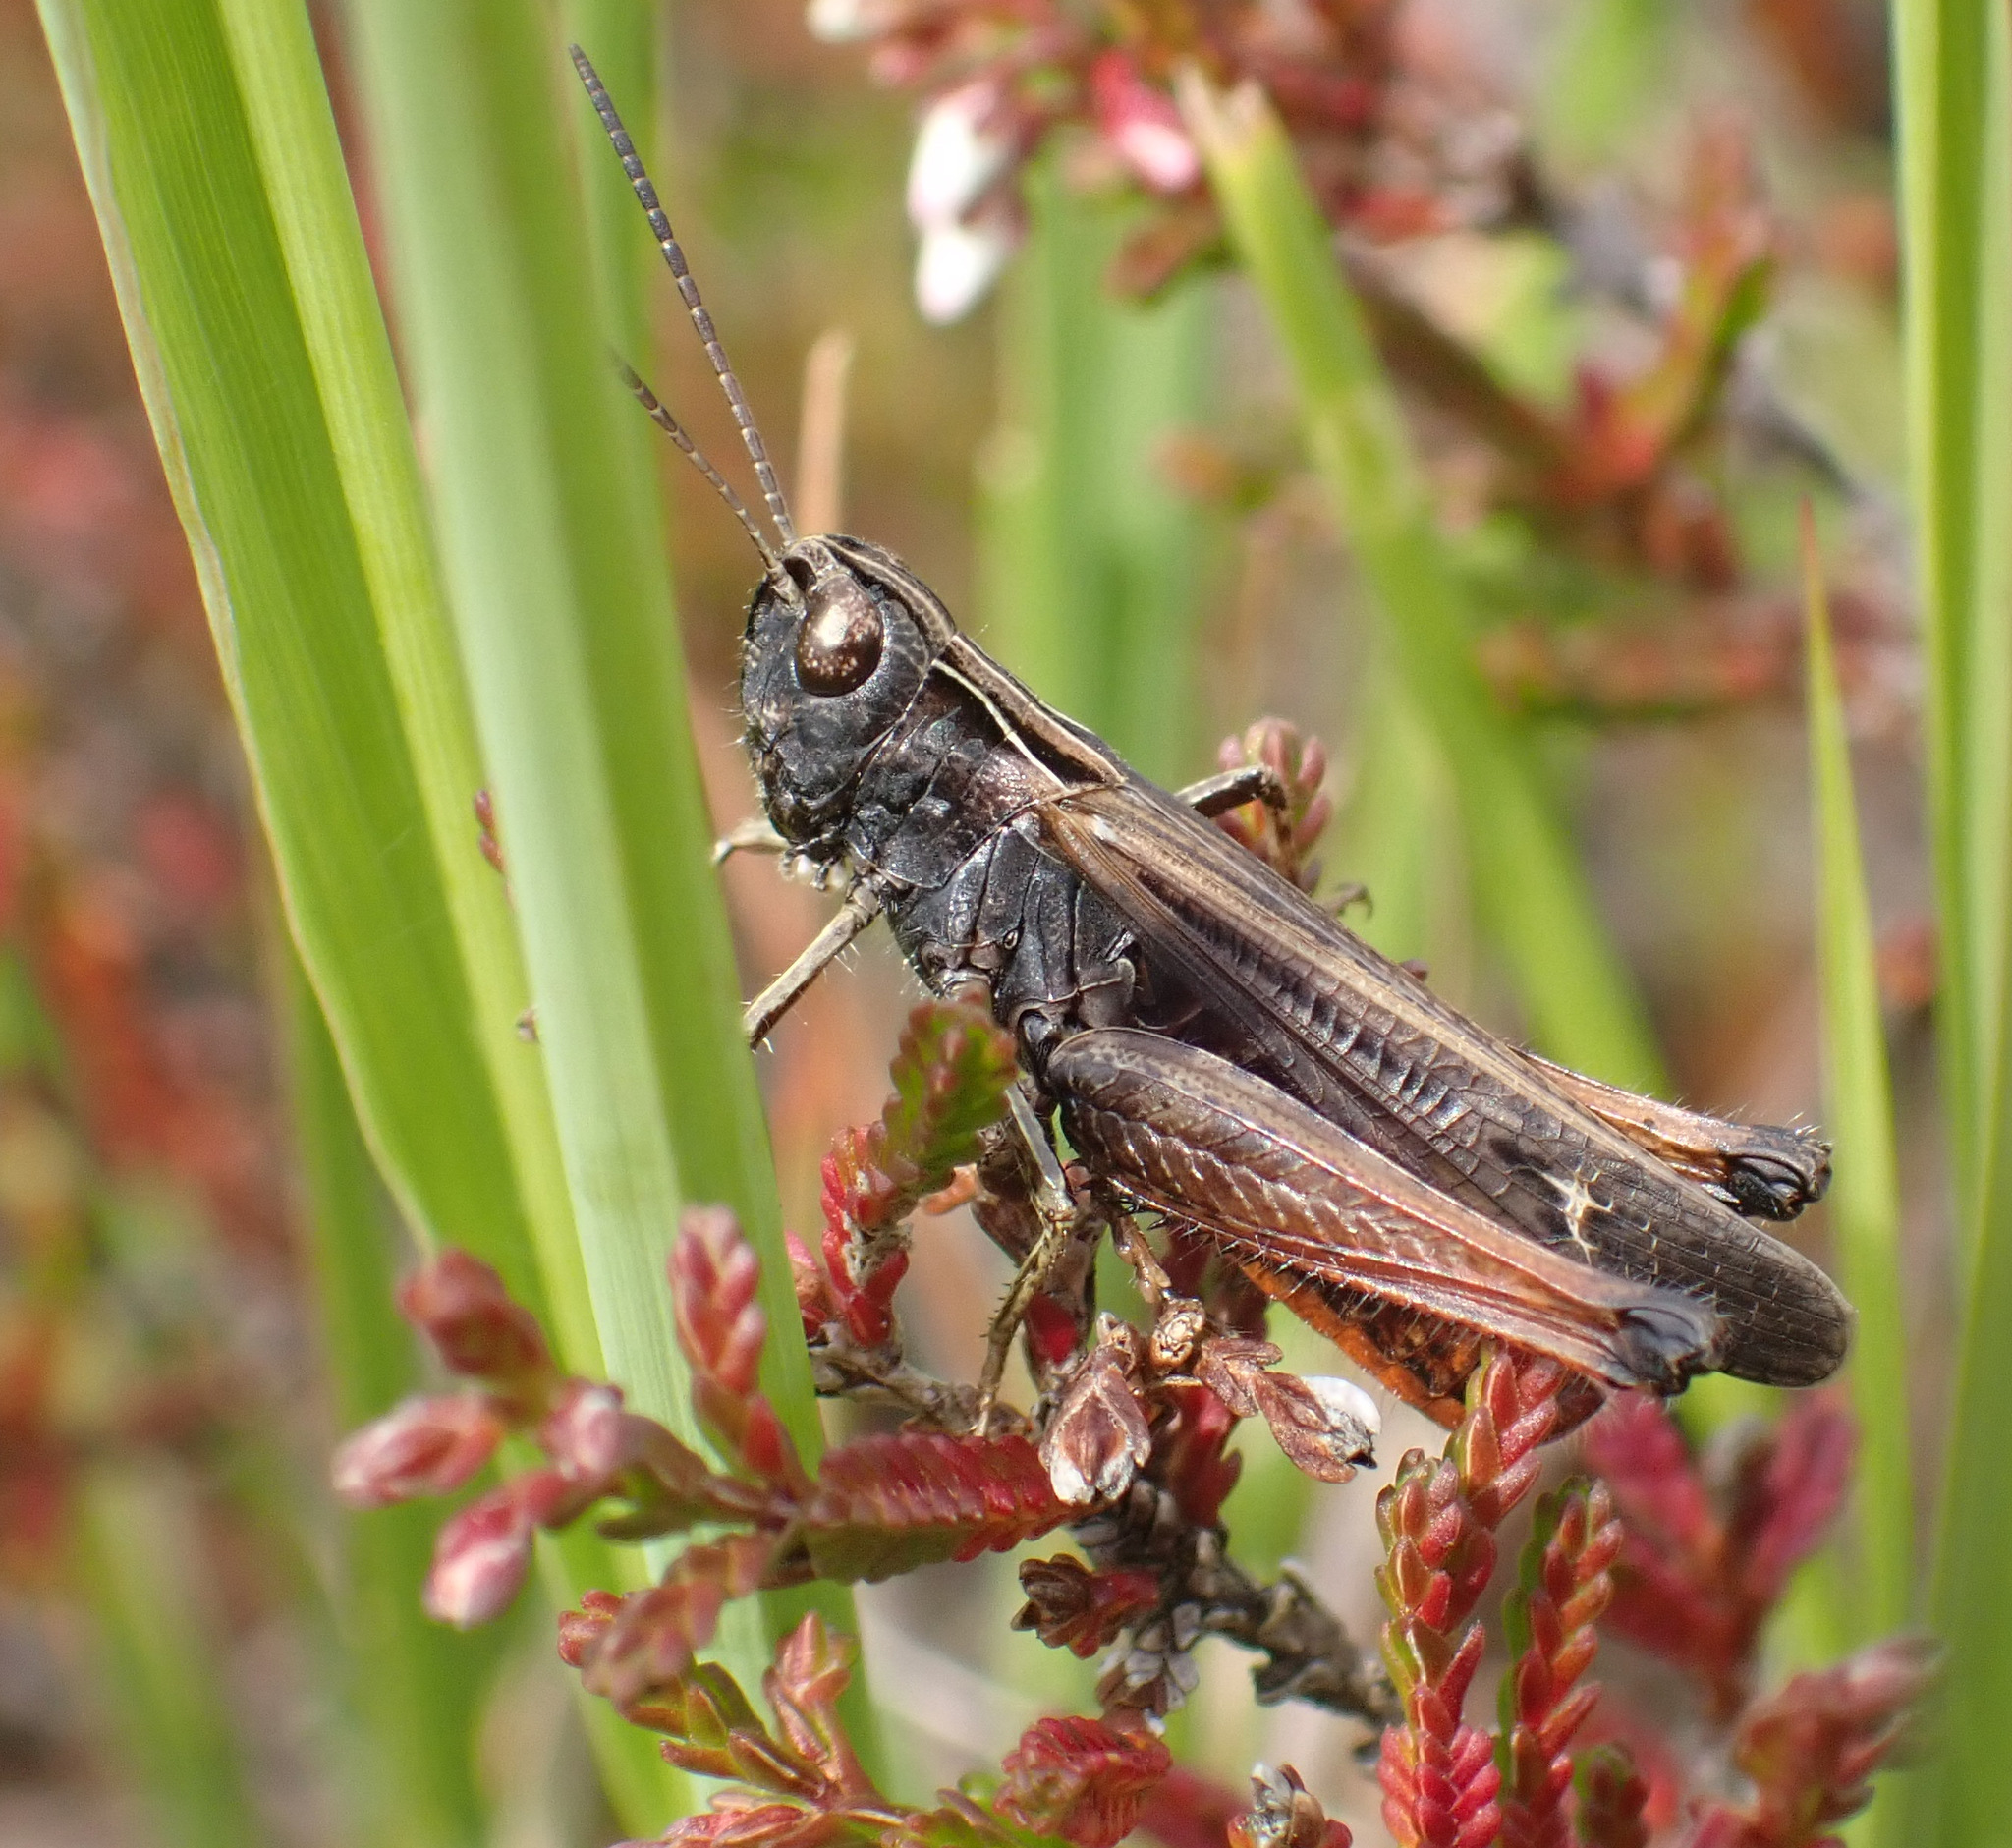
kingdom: Animalia
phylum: Arthropoda
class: Insecta
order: Orthoptera
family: Acrididae
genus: Omocestus
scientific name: Omocestus rufipes
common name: Woodland grasshopper
